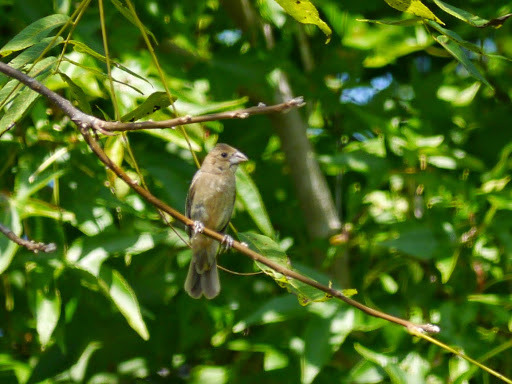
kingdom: Animalia
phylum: Chordata
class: Aves
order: Passeriformes
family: Cardinalidae
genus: Passerina
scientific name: Passerina caerulea
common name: Blue grosbeak
